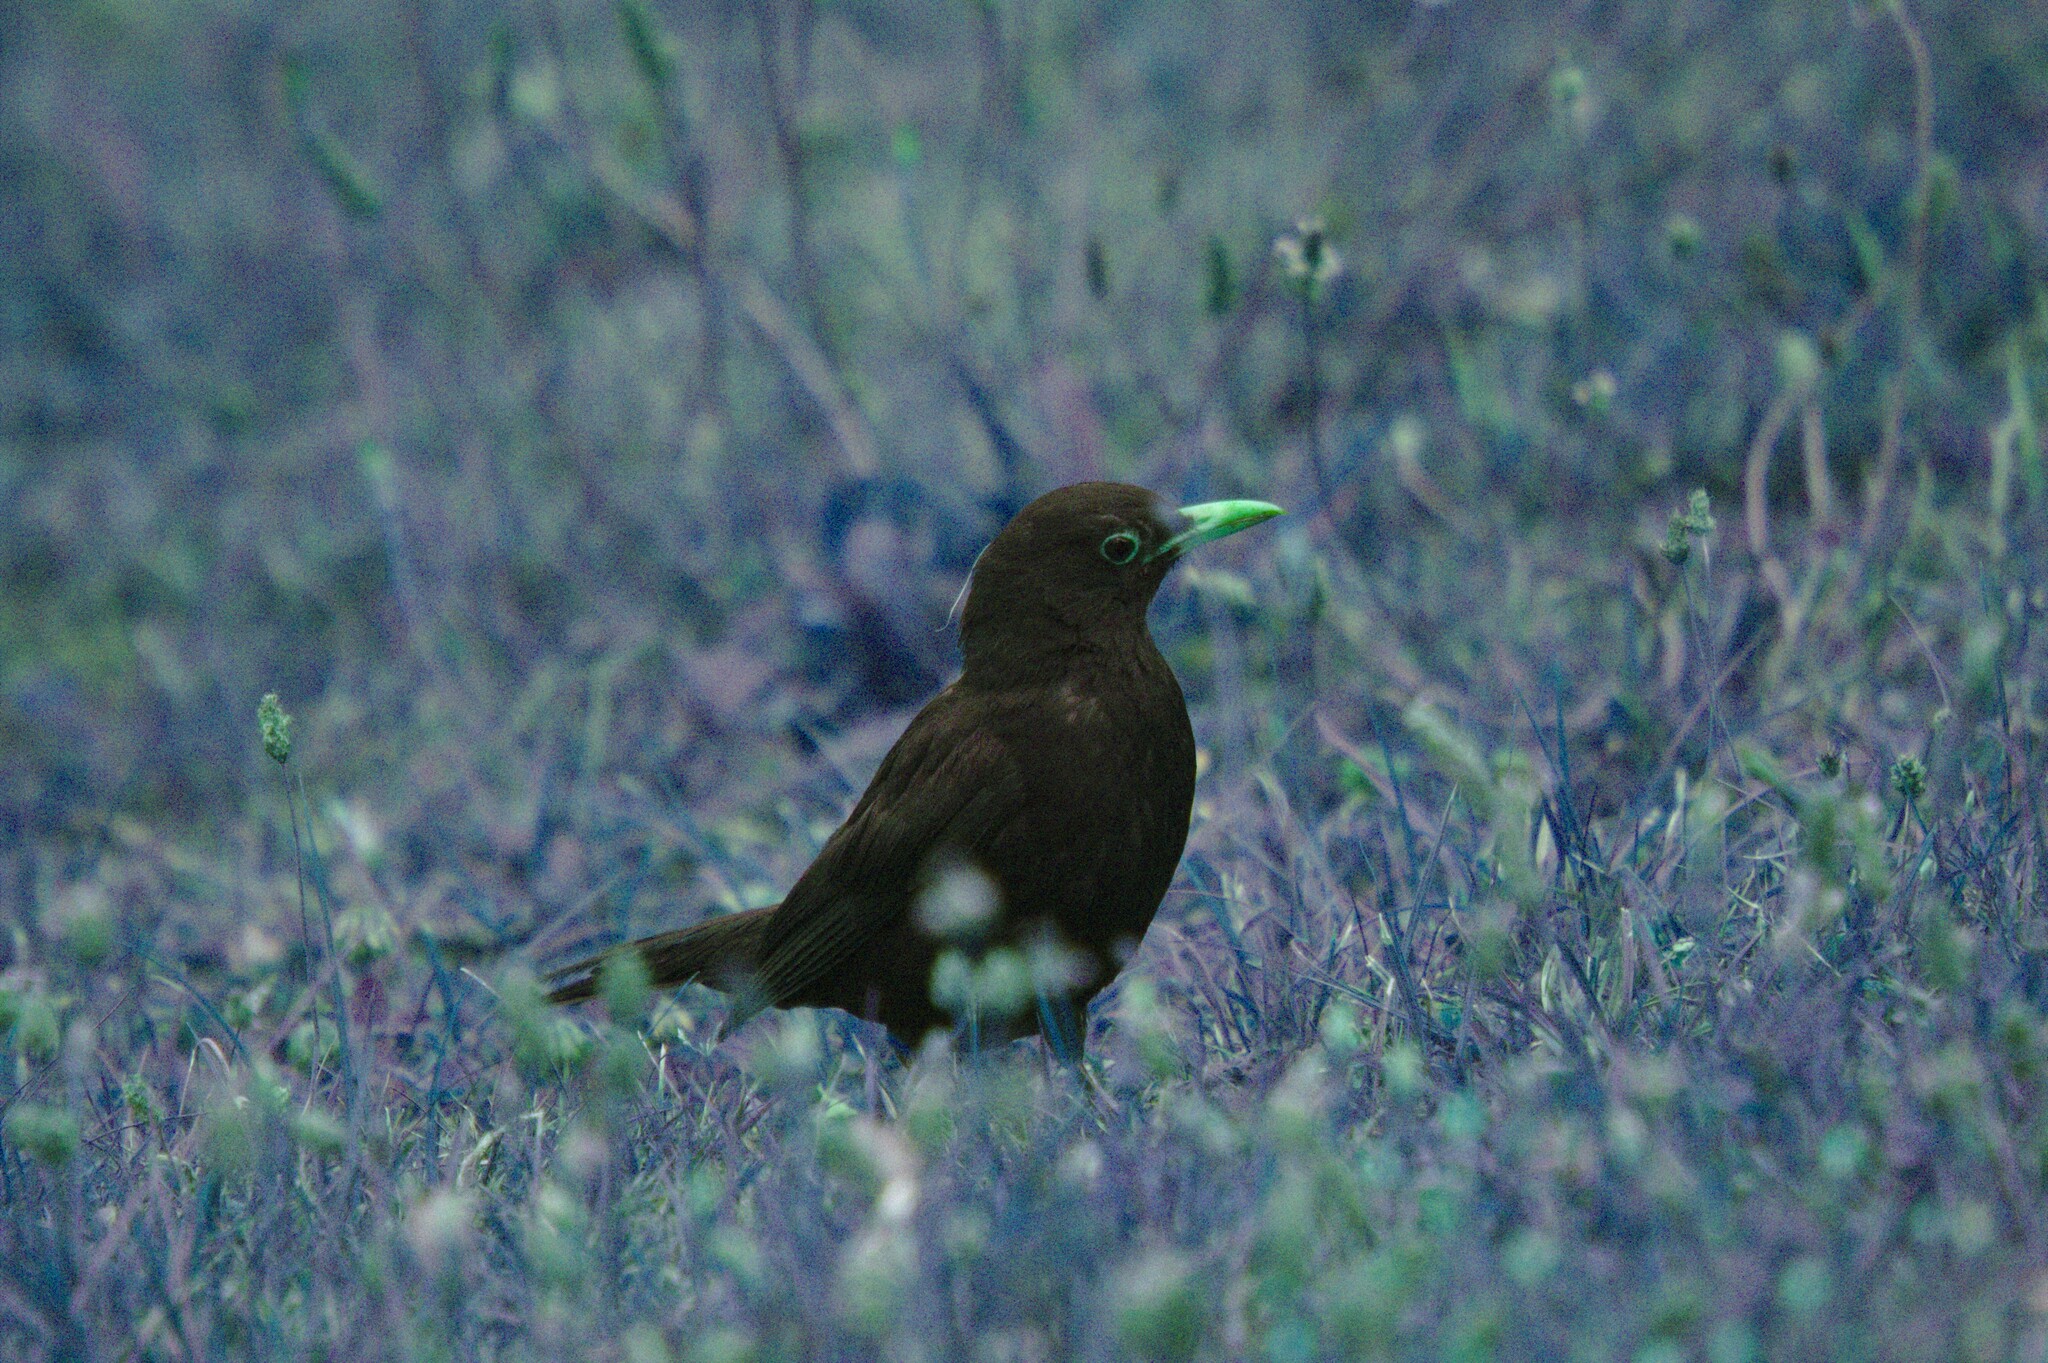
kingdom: Animalia
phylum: Chordata
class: Aves
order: Passeriformes
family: Turdidae
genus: Turdus
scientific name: Turdus merula
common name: Common blackbird
